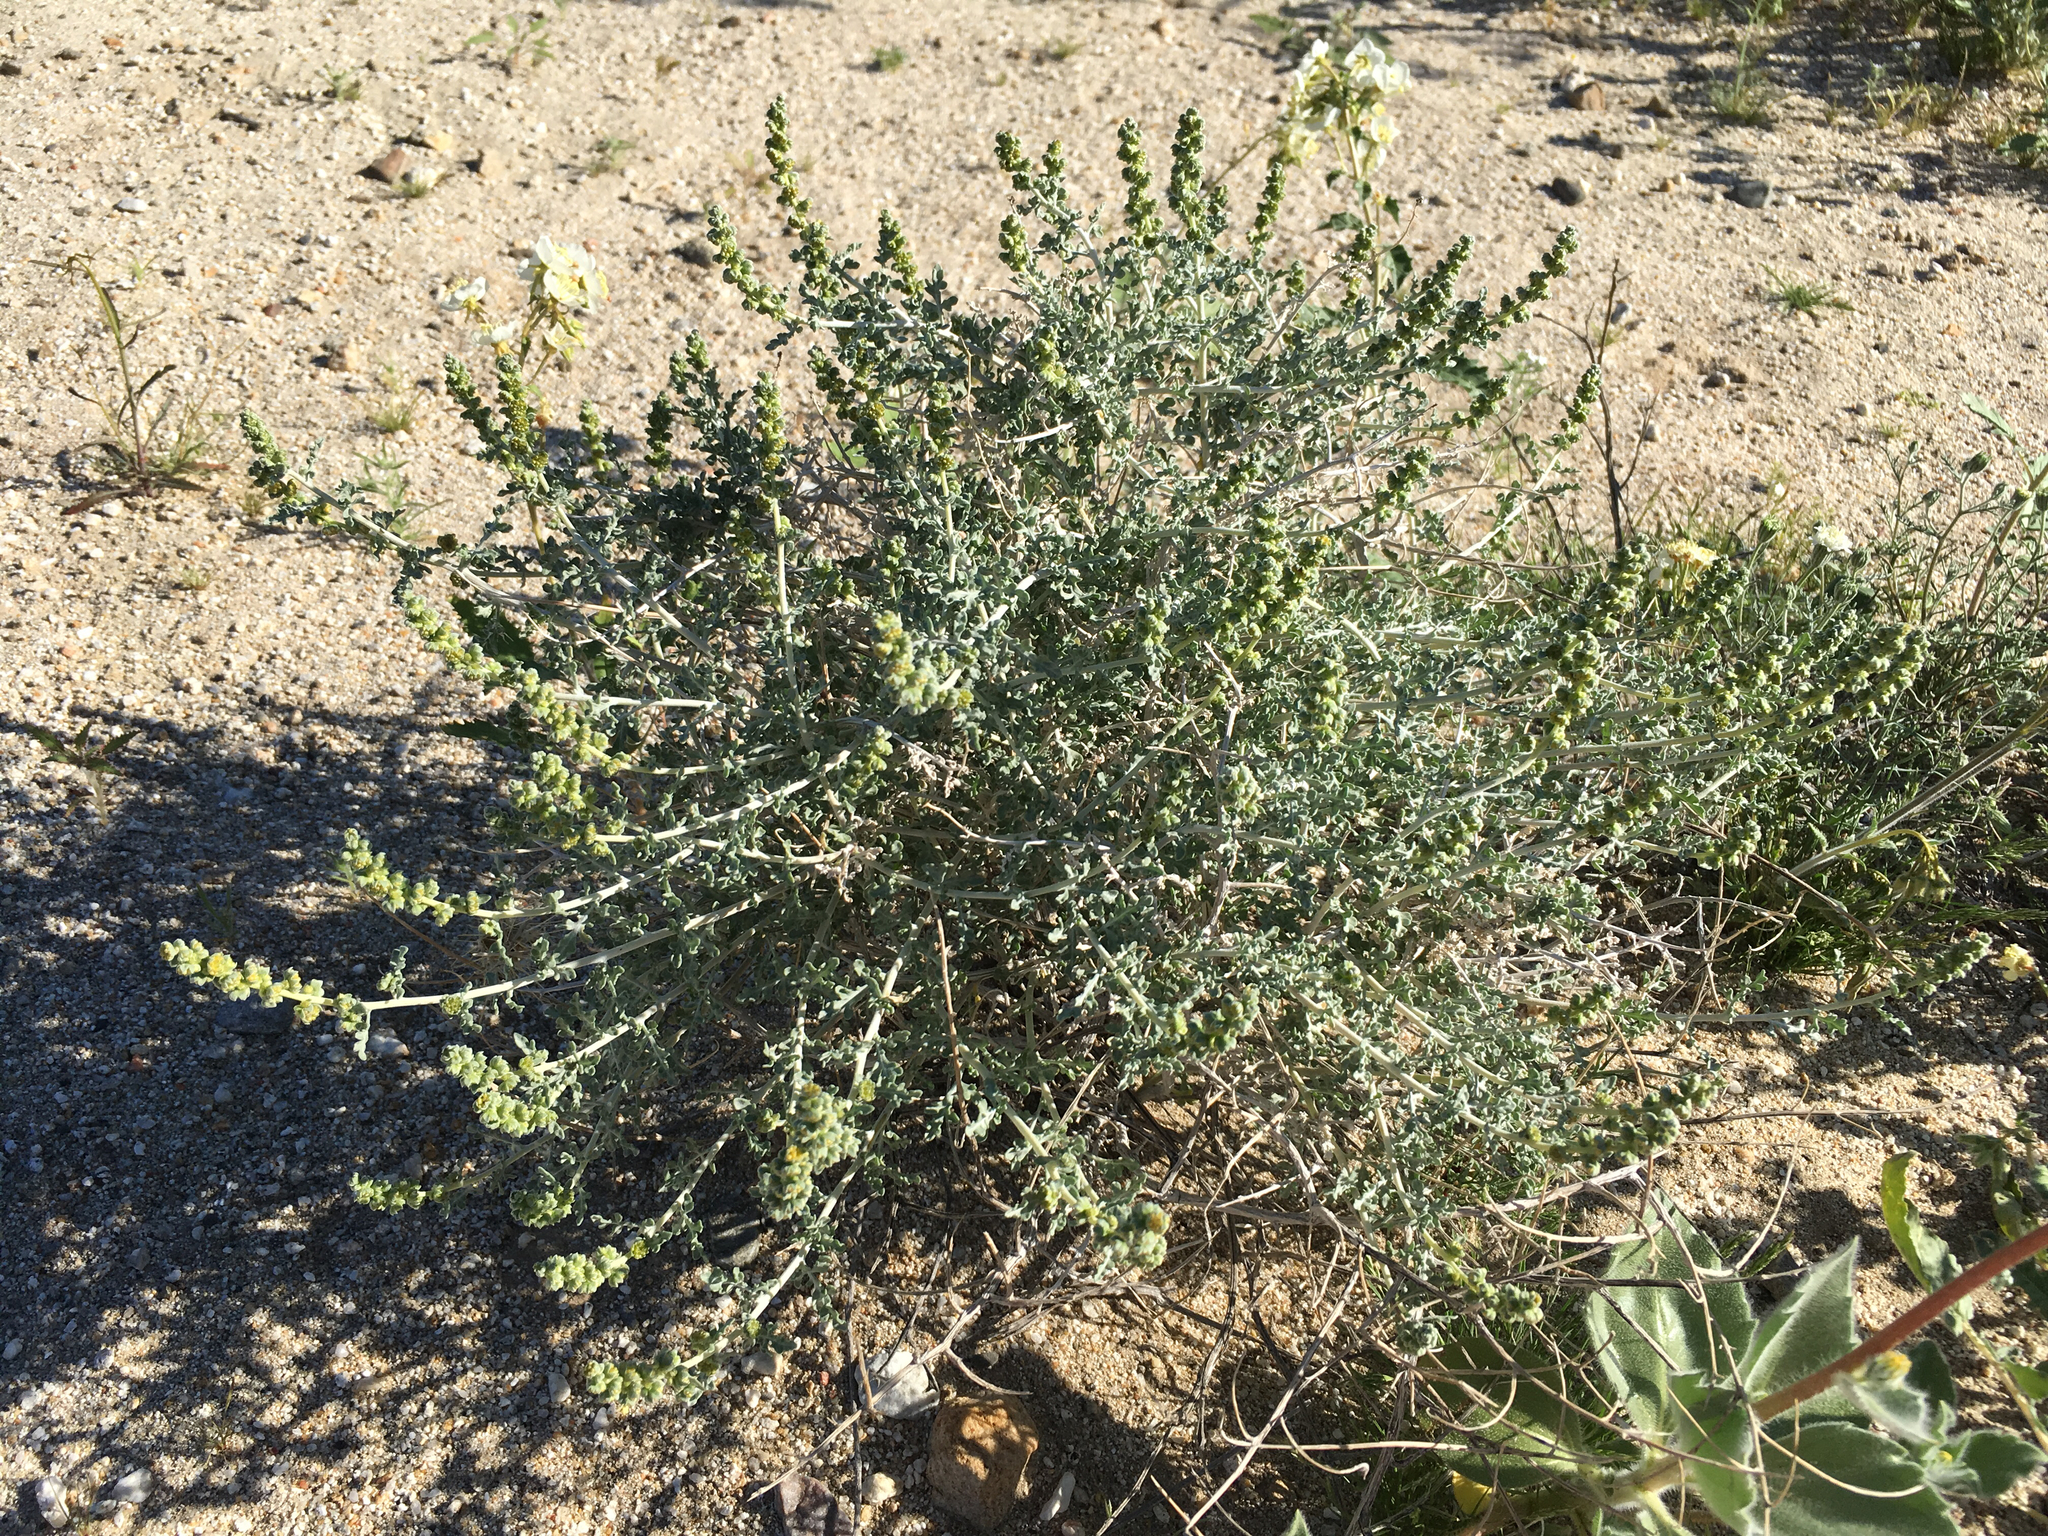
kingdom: Plantae
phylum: Tracheophyta
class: Magnoliopsida
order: Asterales
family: Asteraceae
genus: Ambrosia
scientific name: Ambrosia dumosa
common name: Bur-sage
